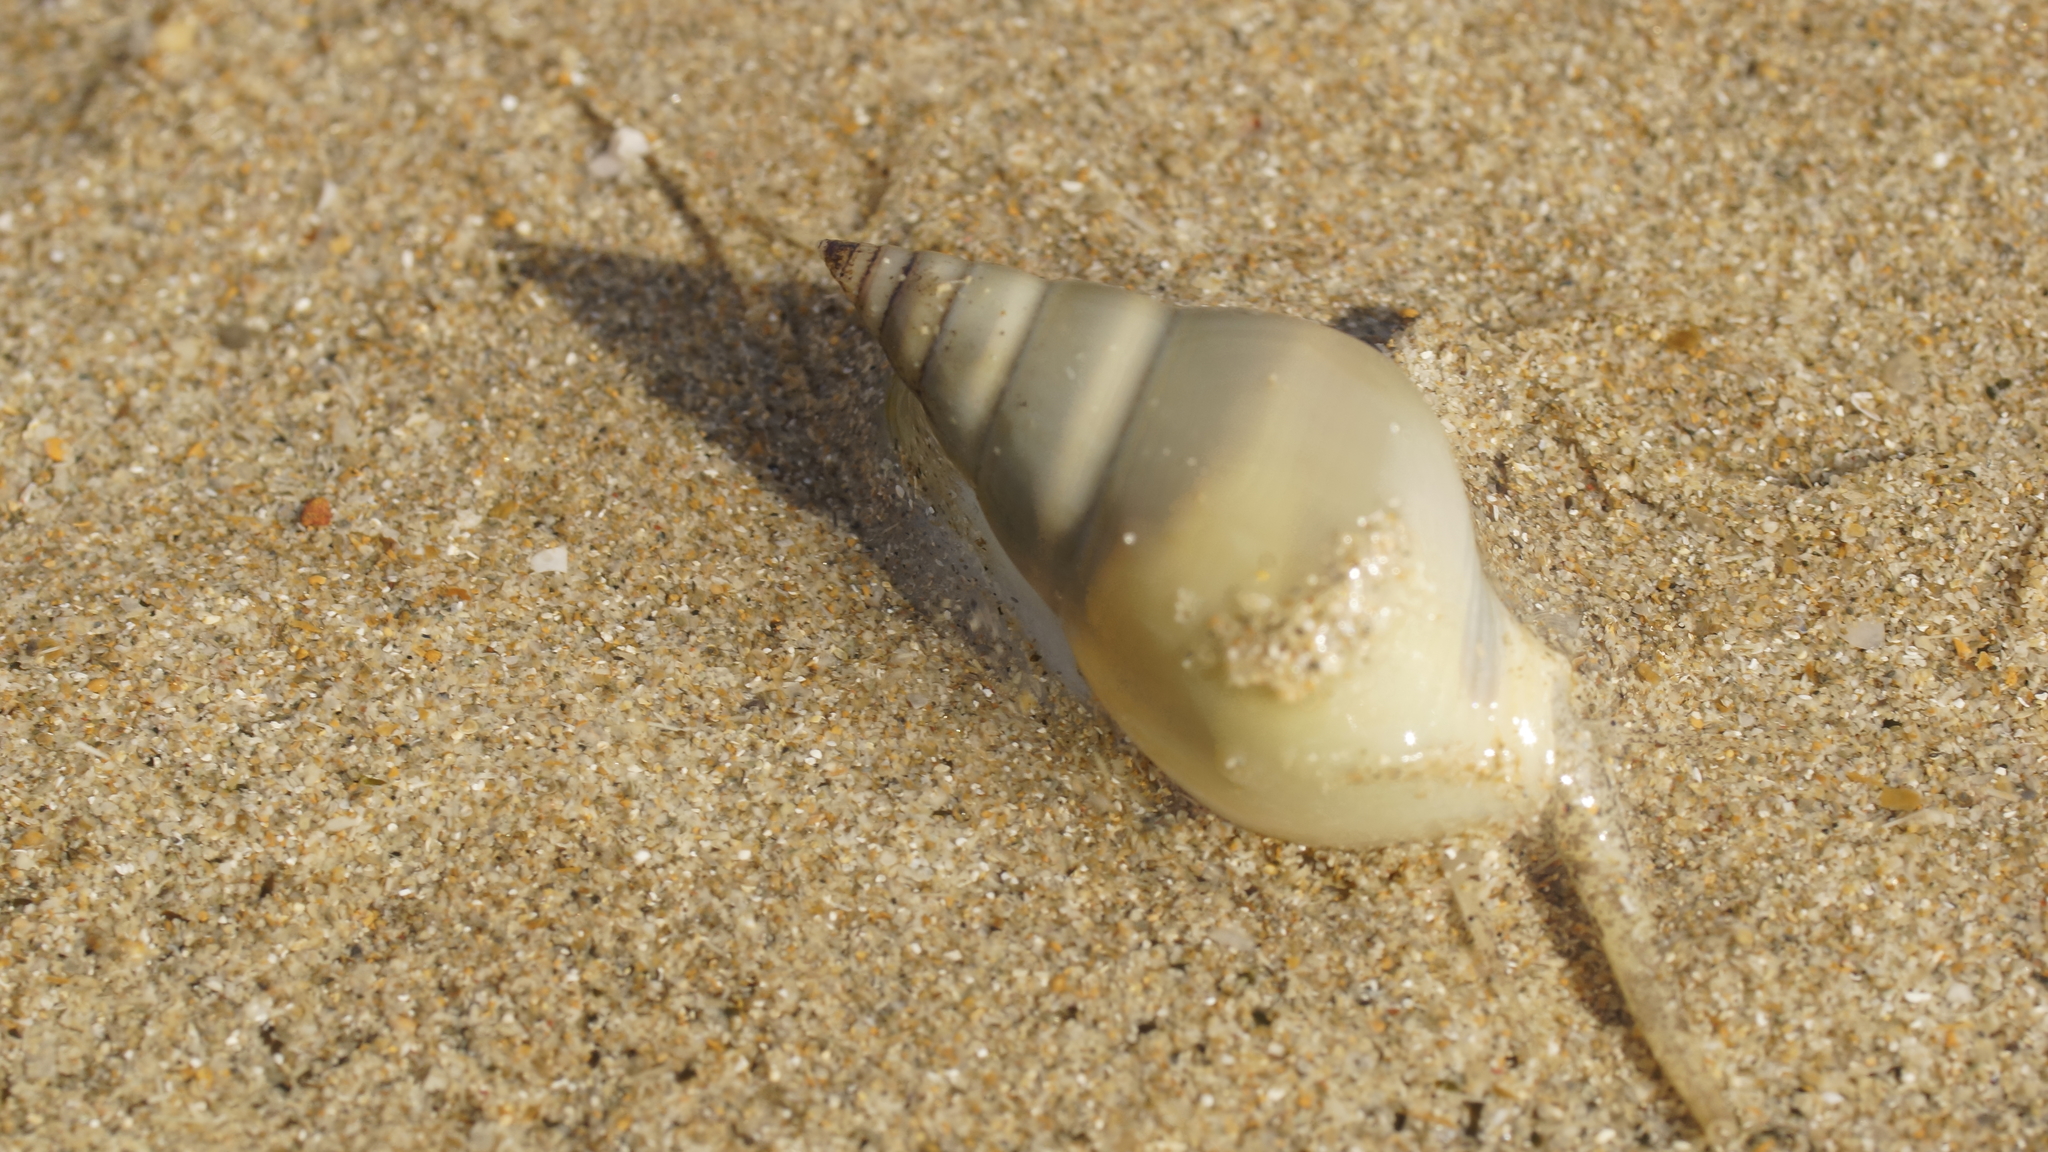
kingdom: Animalia
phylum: Mollusca
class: Gastropoda
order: Neogastropoda
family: Nassariidae
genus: Nassarius
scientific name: Nassarius dorsatus
